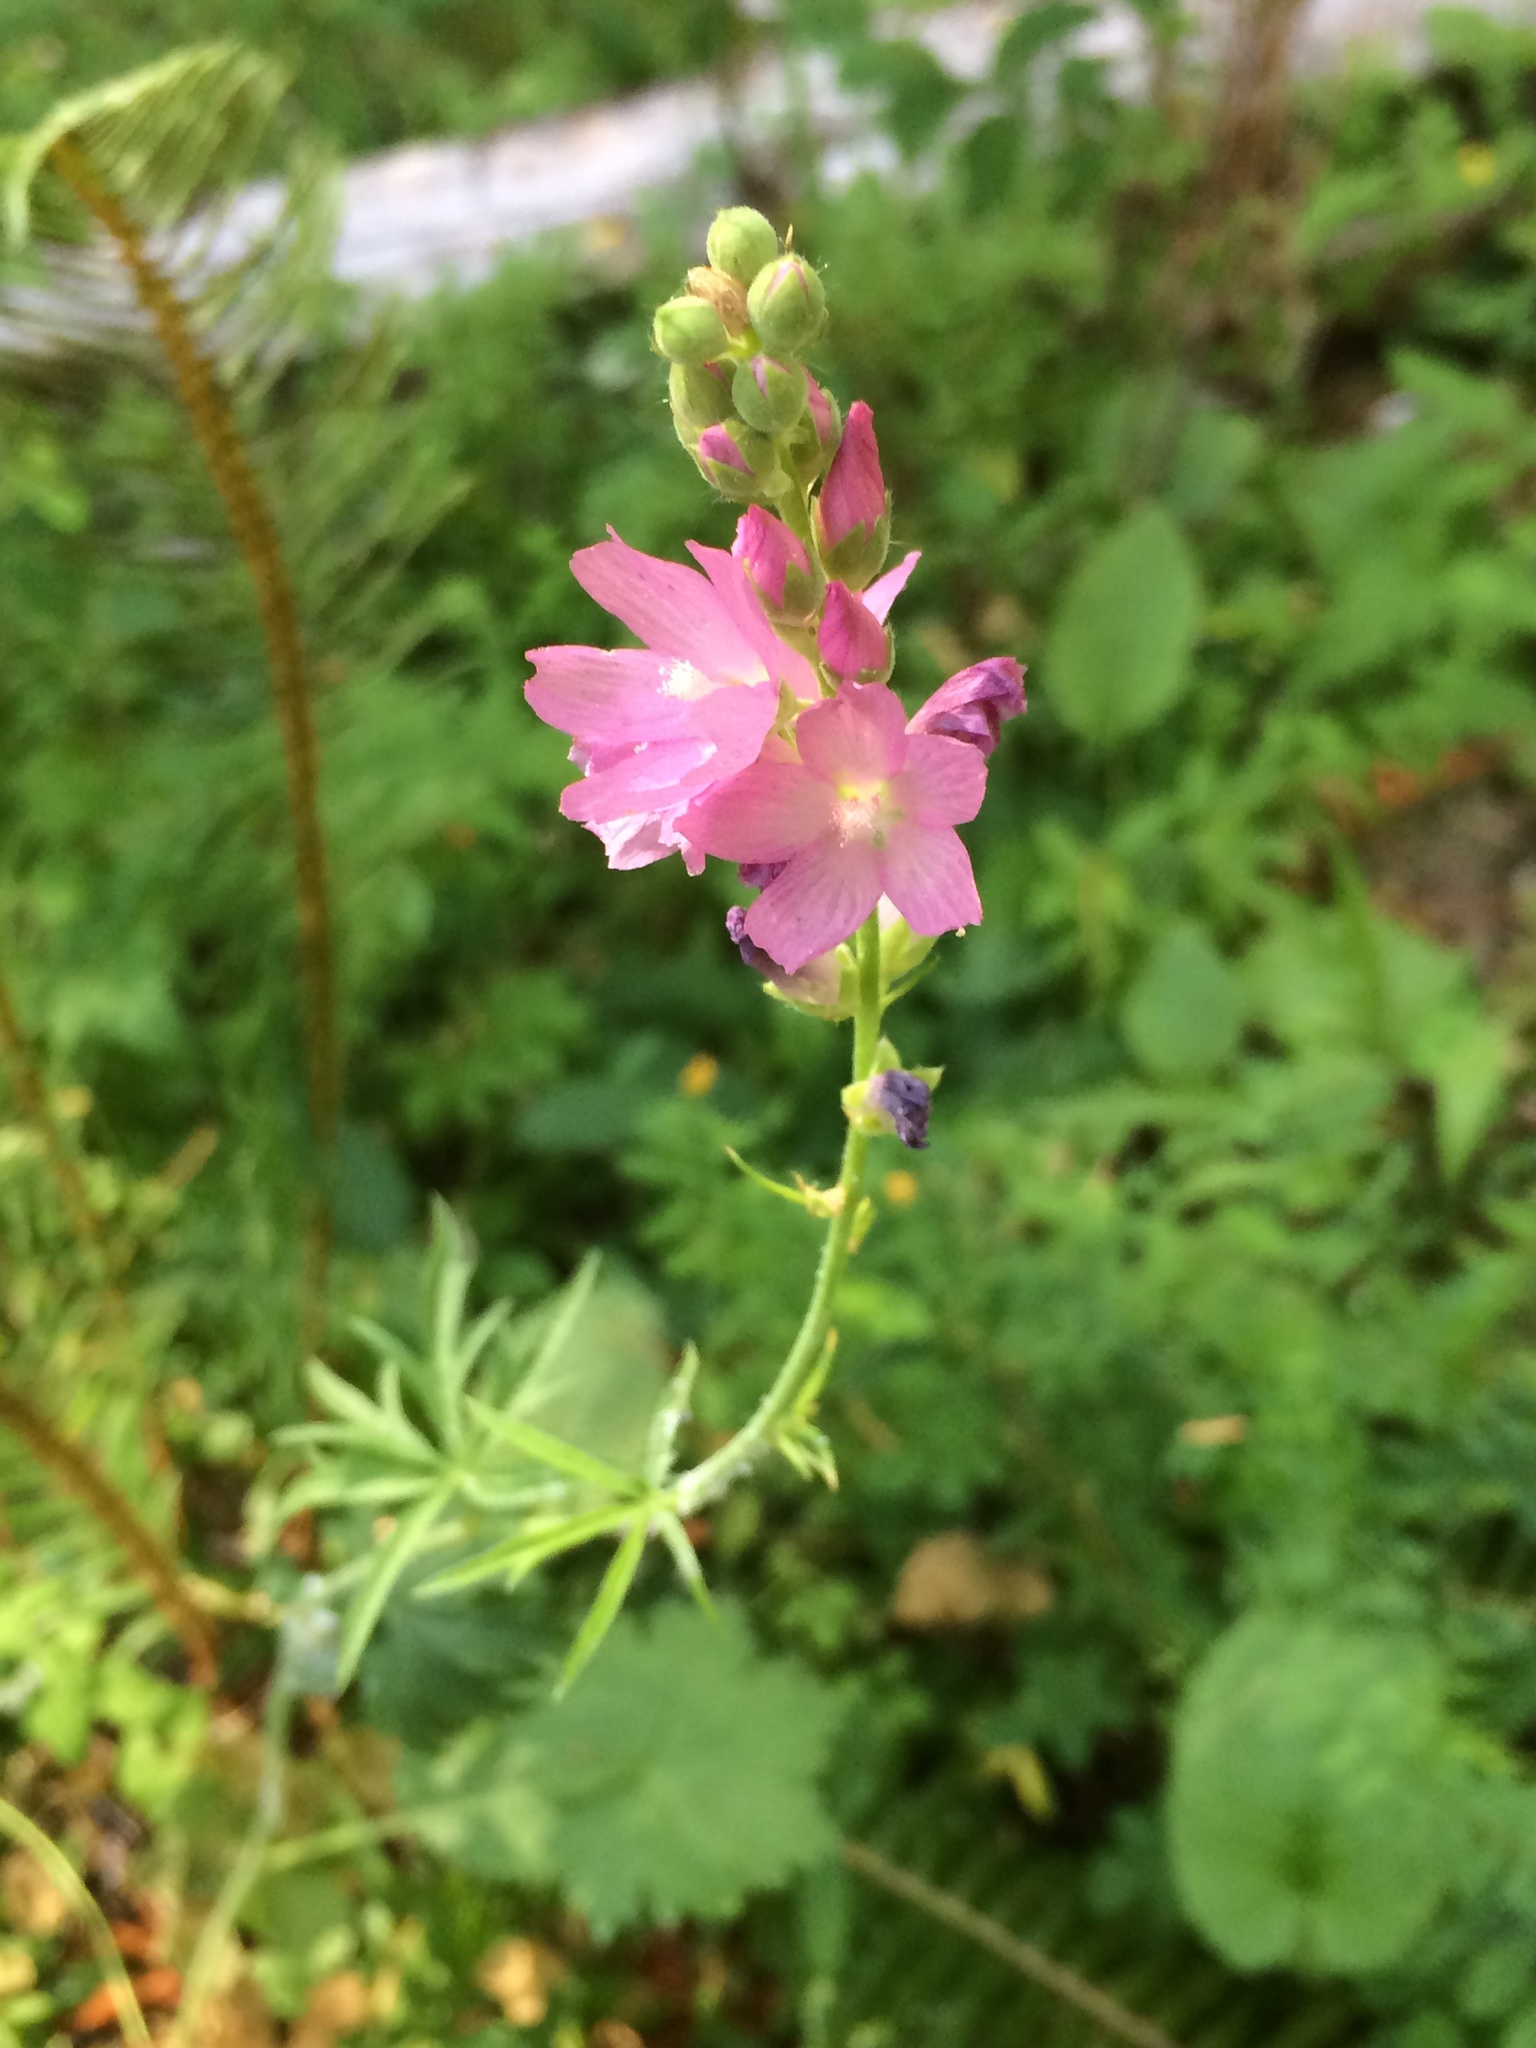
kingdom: Plantae
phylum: Tracheophyta
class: Magnoliopsida
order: Malvales
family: Malvaceae
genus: Sidalcea
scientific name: Sidalcea oregana
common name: Oregon checker-mallow
